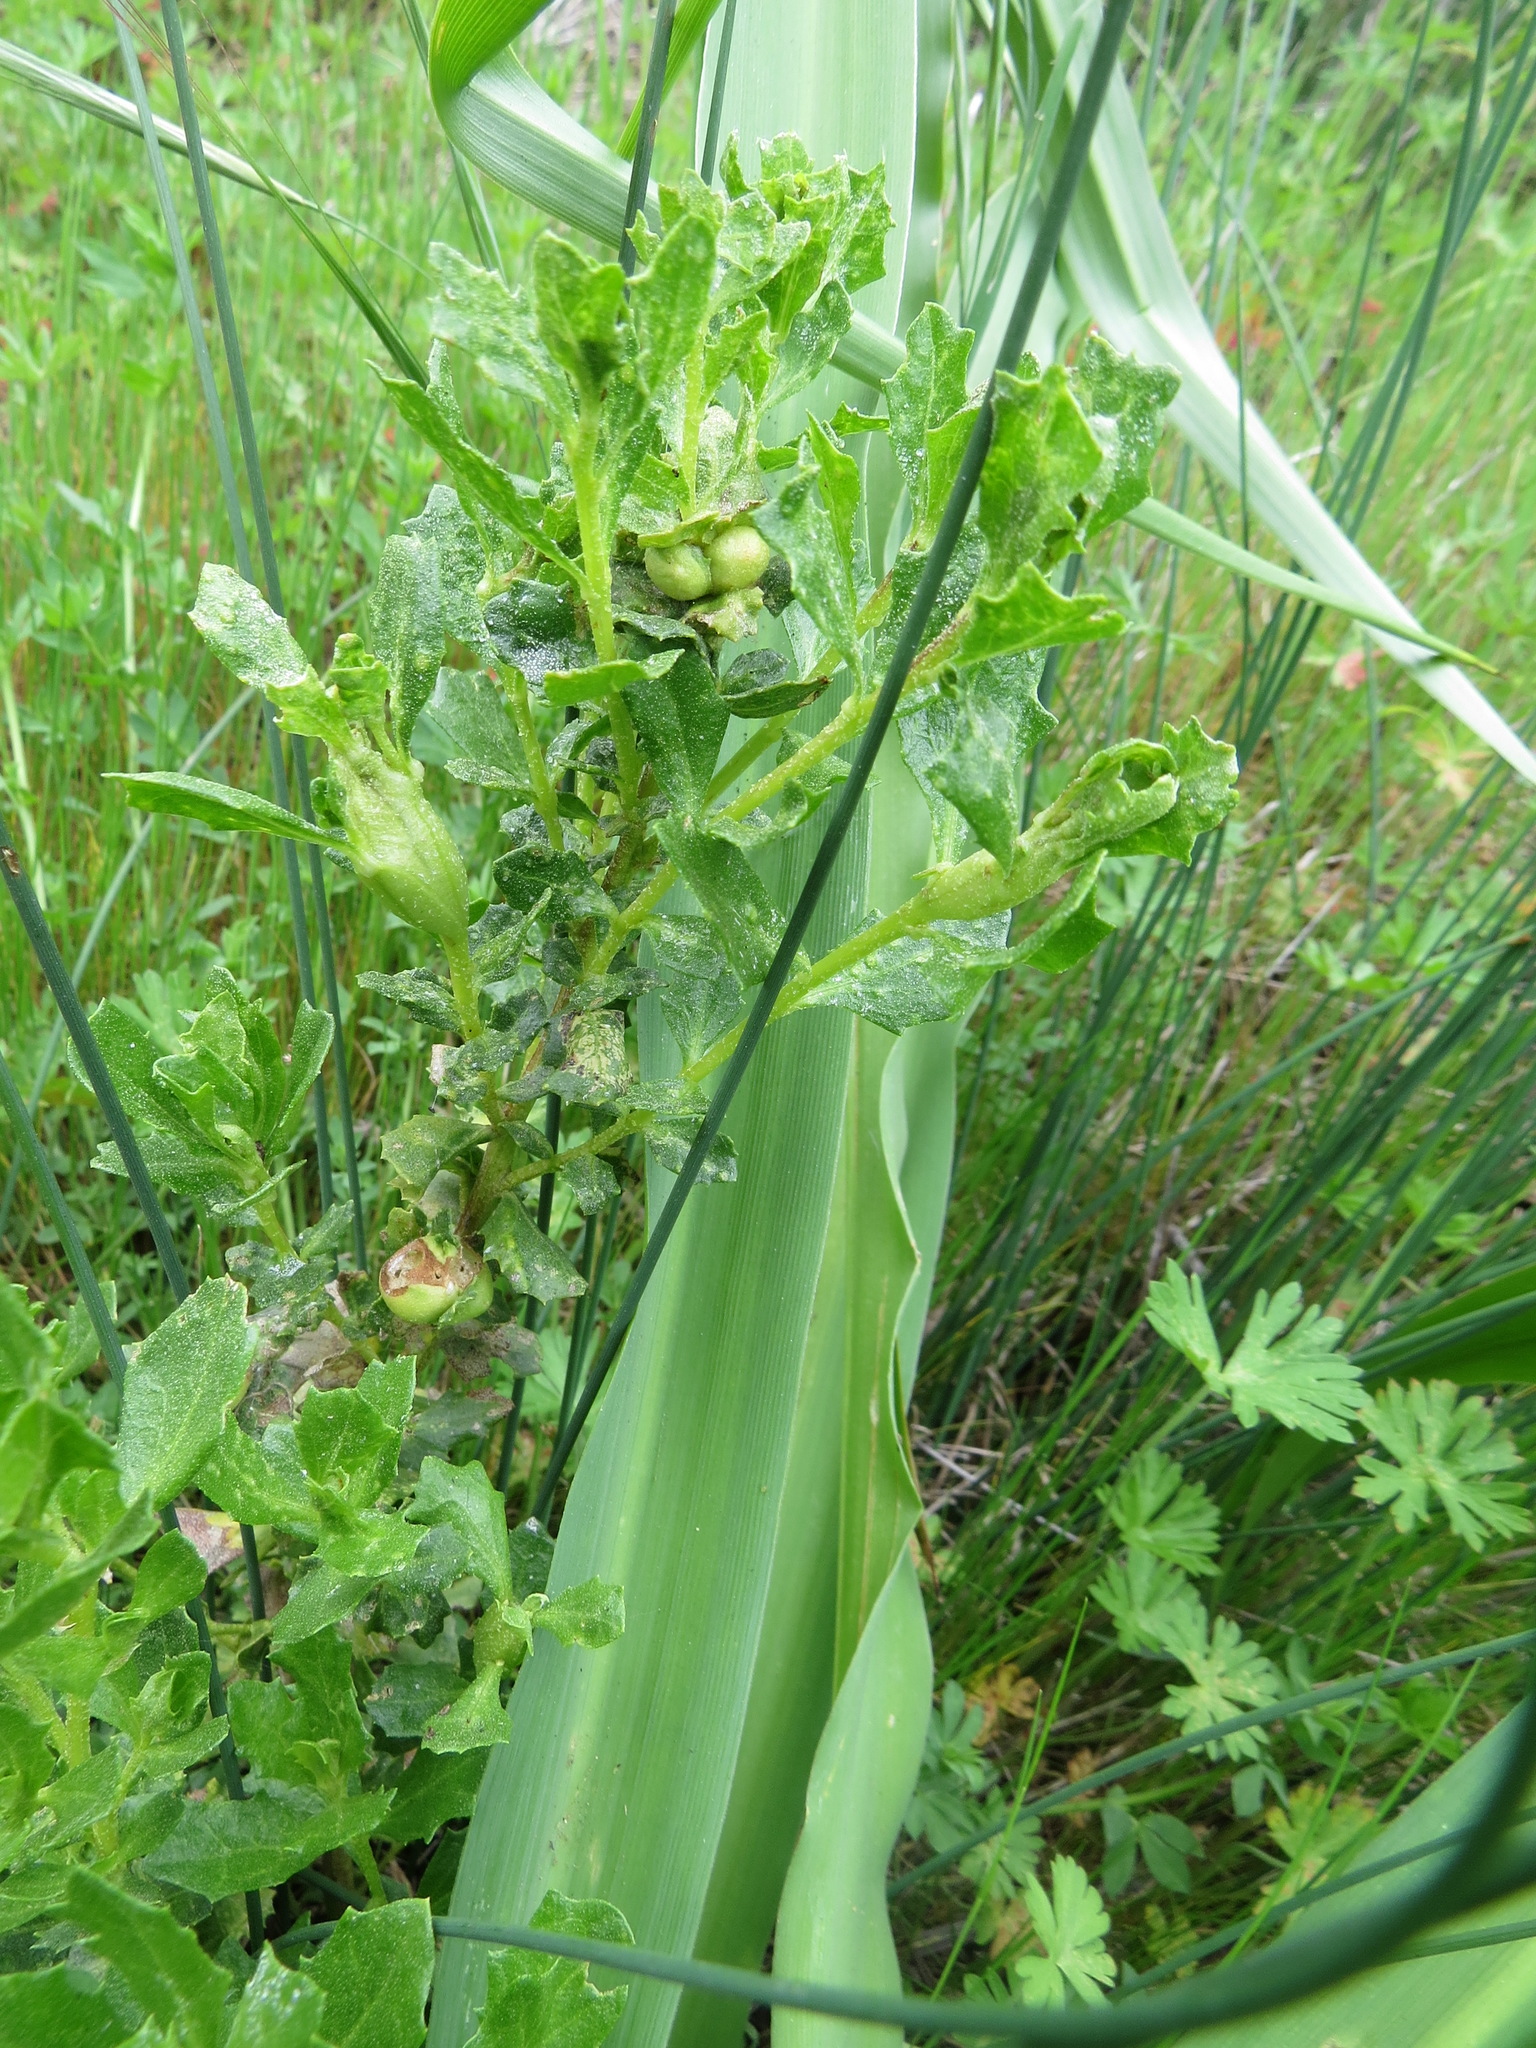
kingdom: Animalia
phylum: Arthropoda
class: Insecta
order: Diptera
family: Cecidomyiidae
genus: Rhopalomyia
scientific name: Rhopalomyia californica
